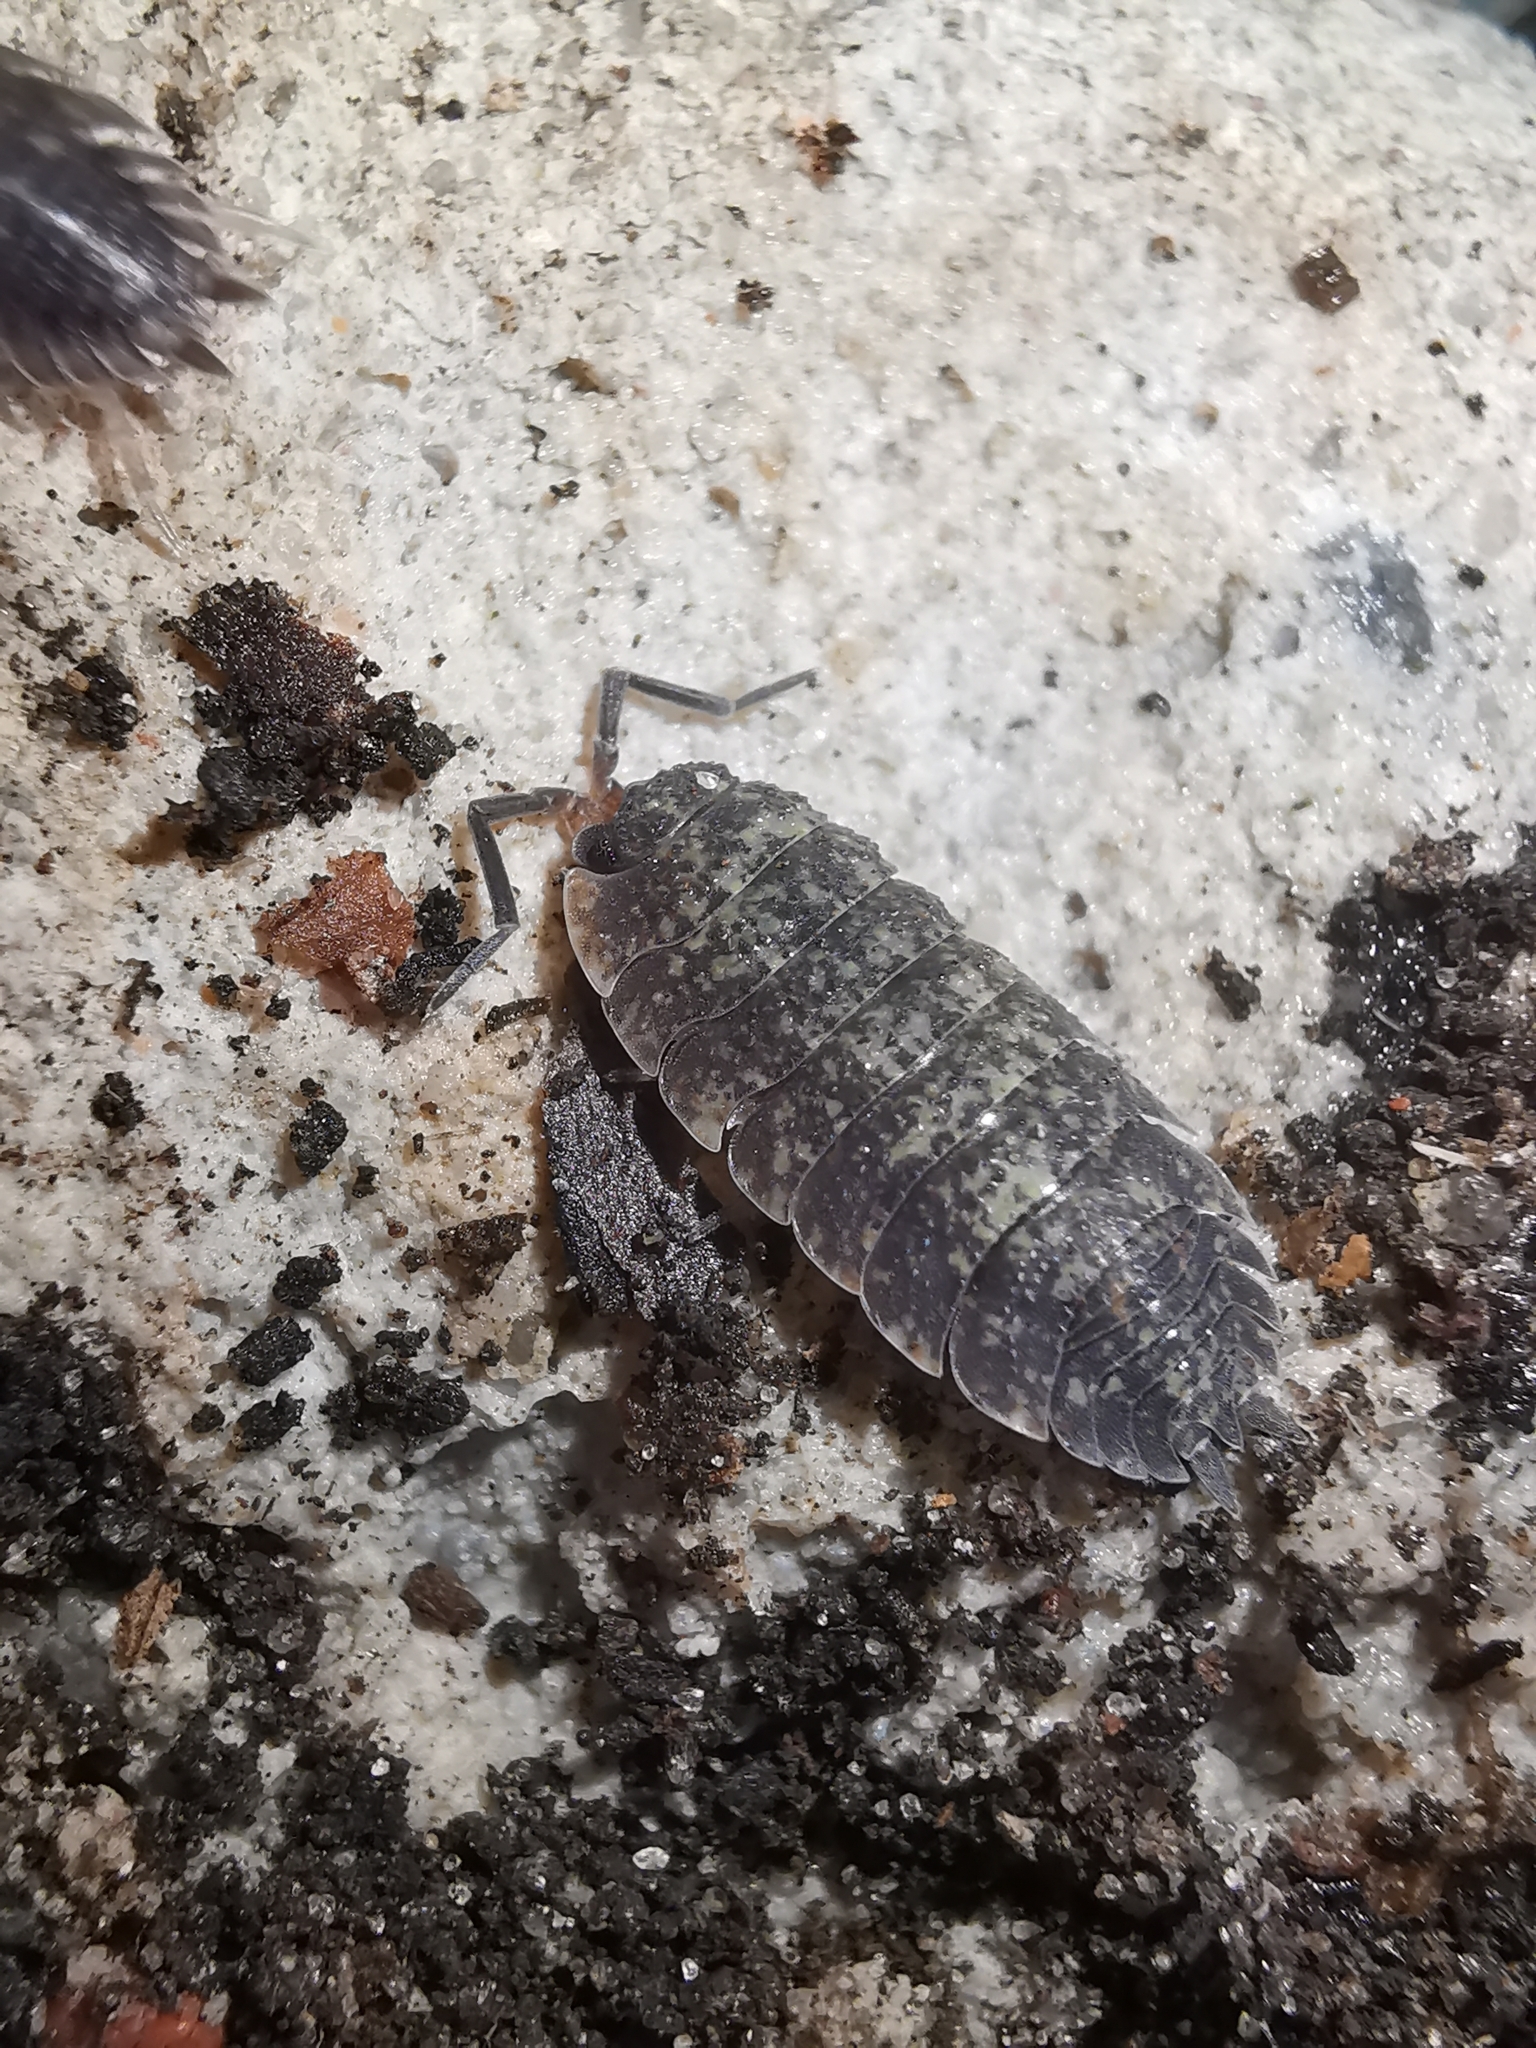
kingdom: Animalia
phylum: Arthropoda
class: Malacostraca
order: Isopoda
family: Porcellionidae
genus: Porcellio
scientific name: Porcellio scaber
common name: Common rough woodlouse
